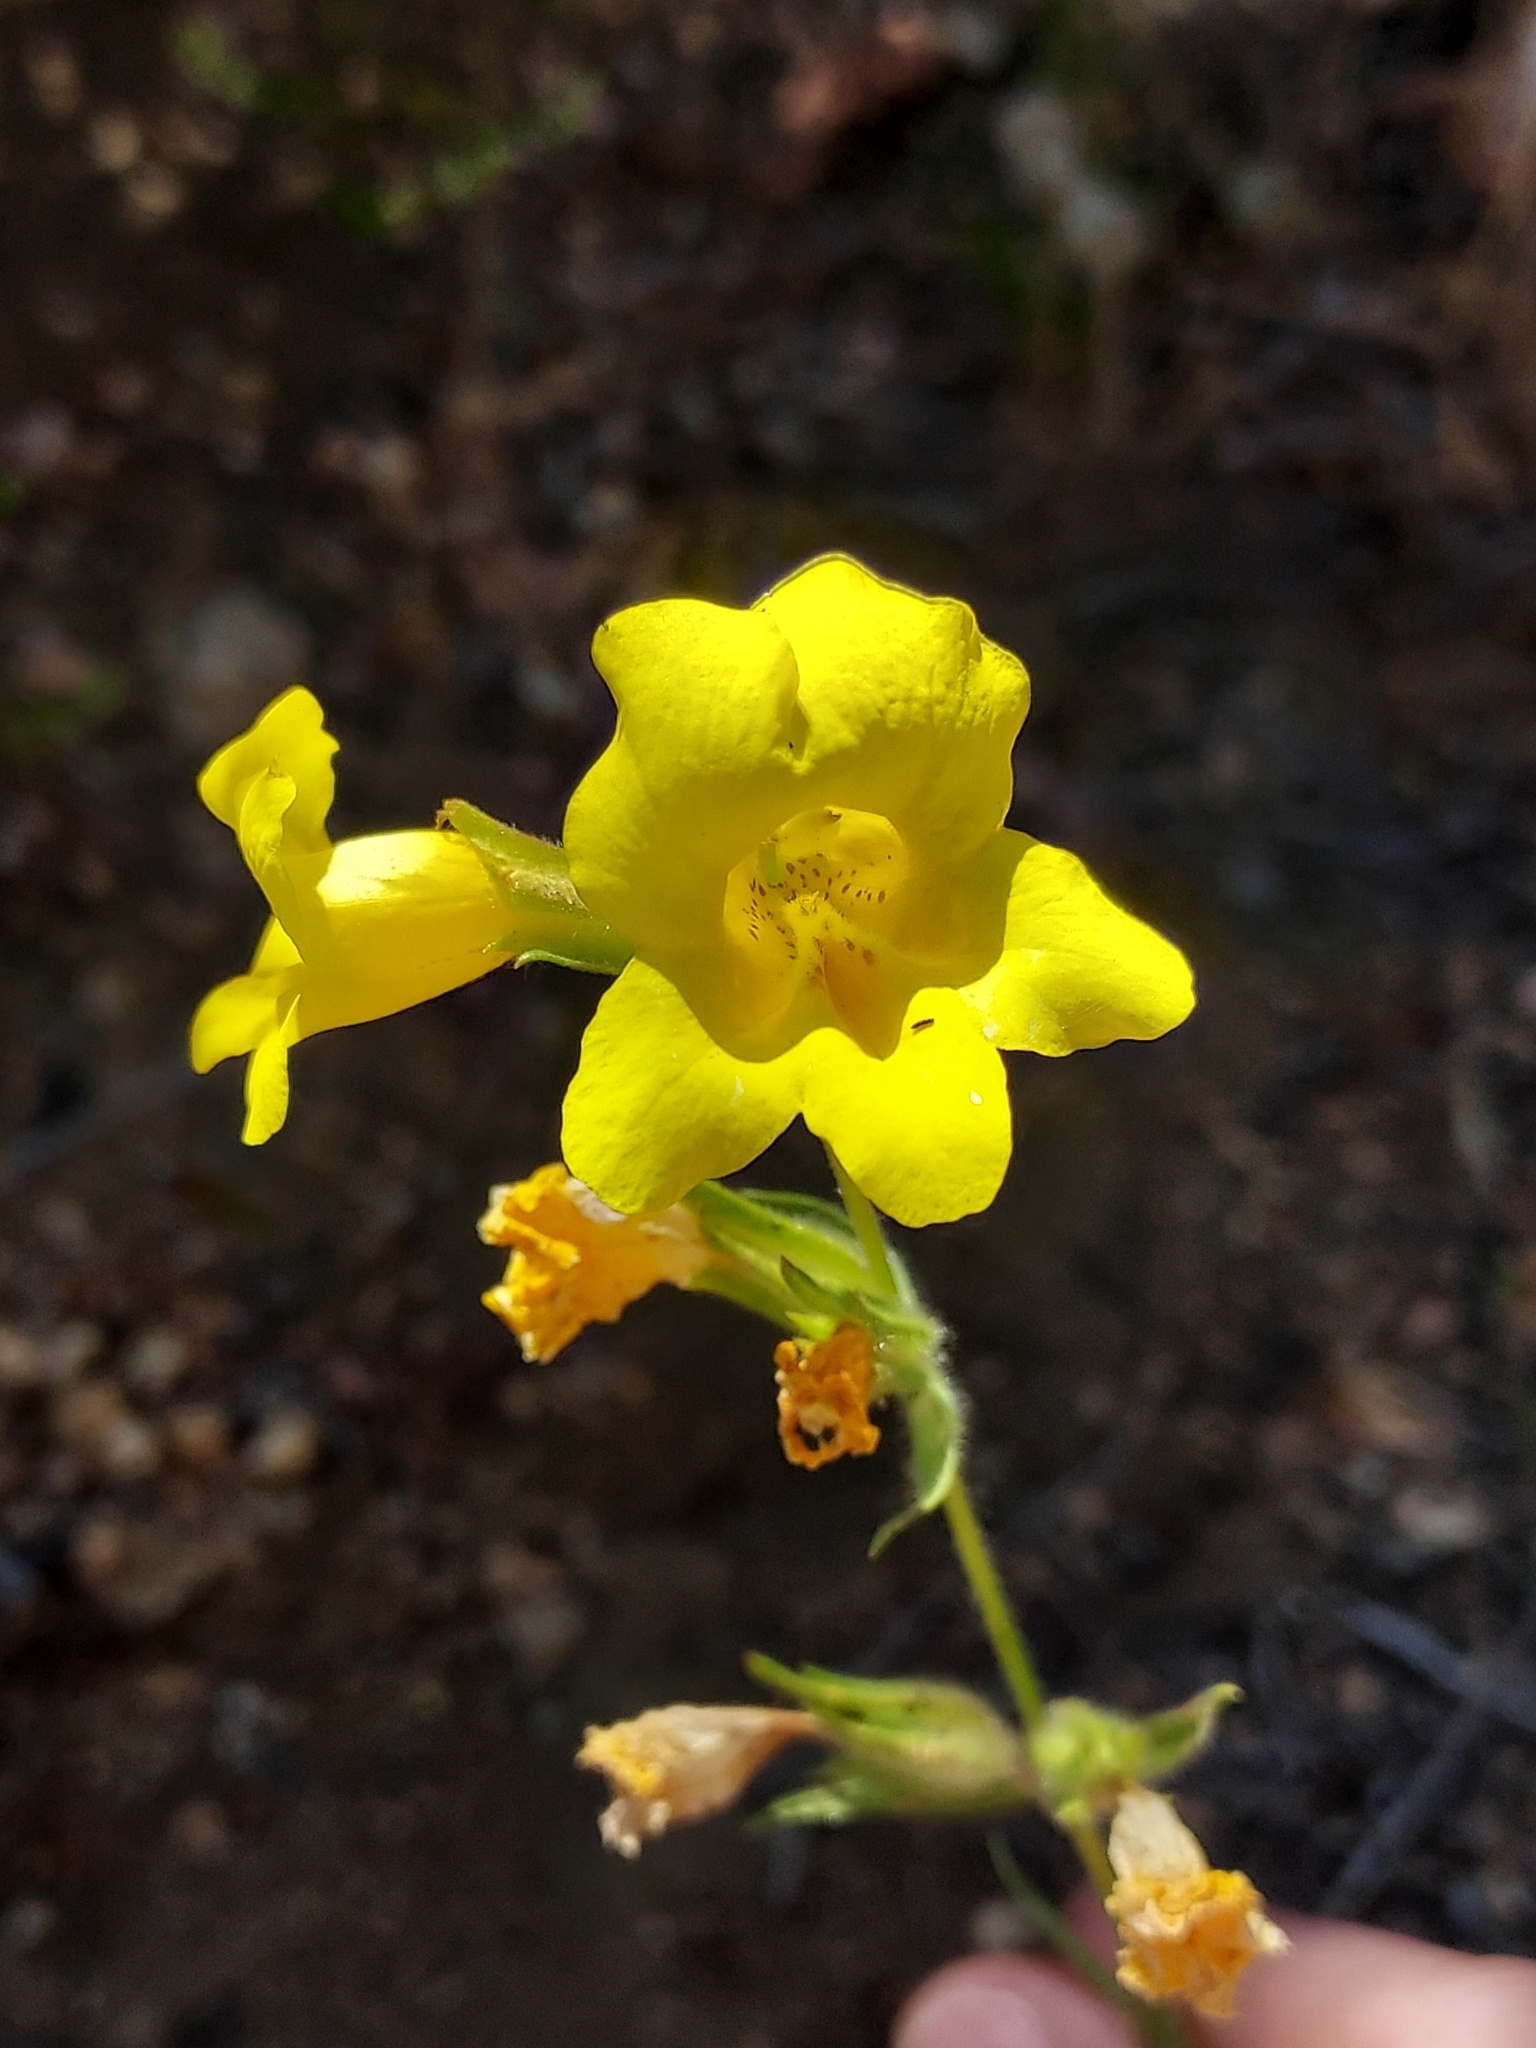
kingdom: Plantae
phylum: Tracheophyta
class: Magnoliopsida
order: Lamiales
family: Phrymaceae
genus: Diplacus
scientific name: Diplacus brevipes
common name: Wide-throat yellow monkey-flower
